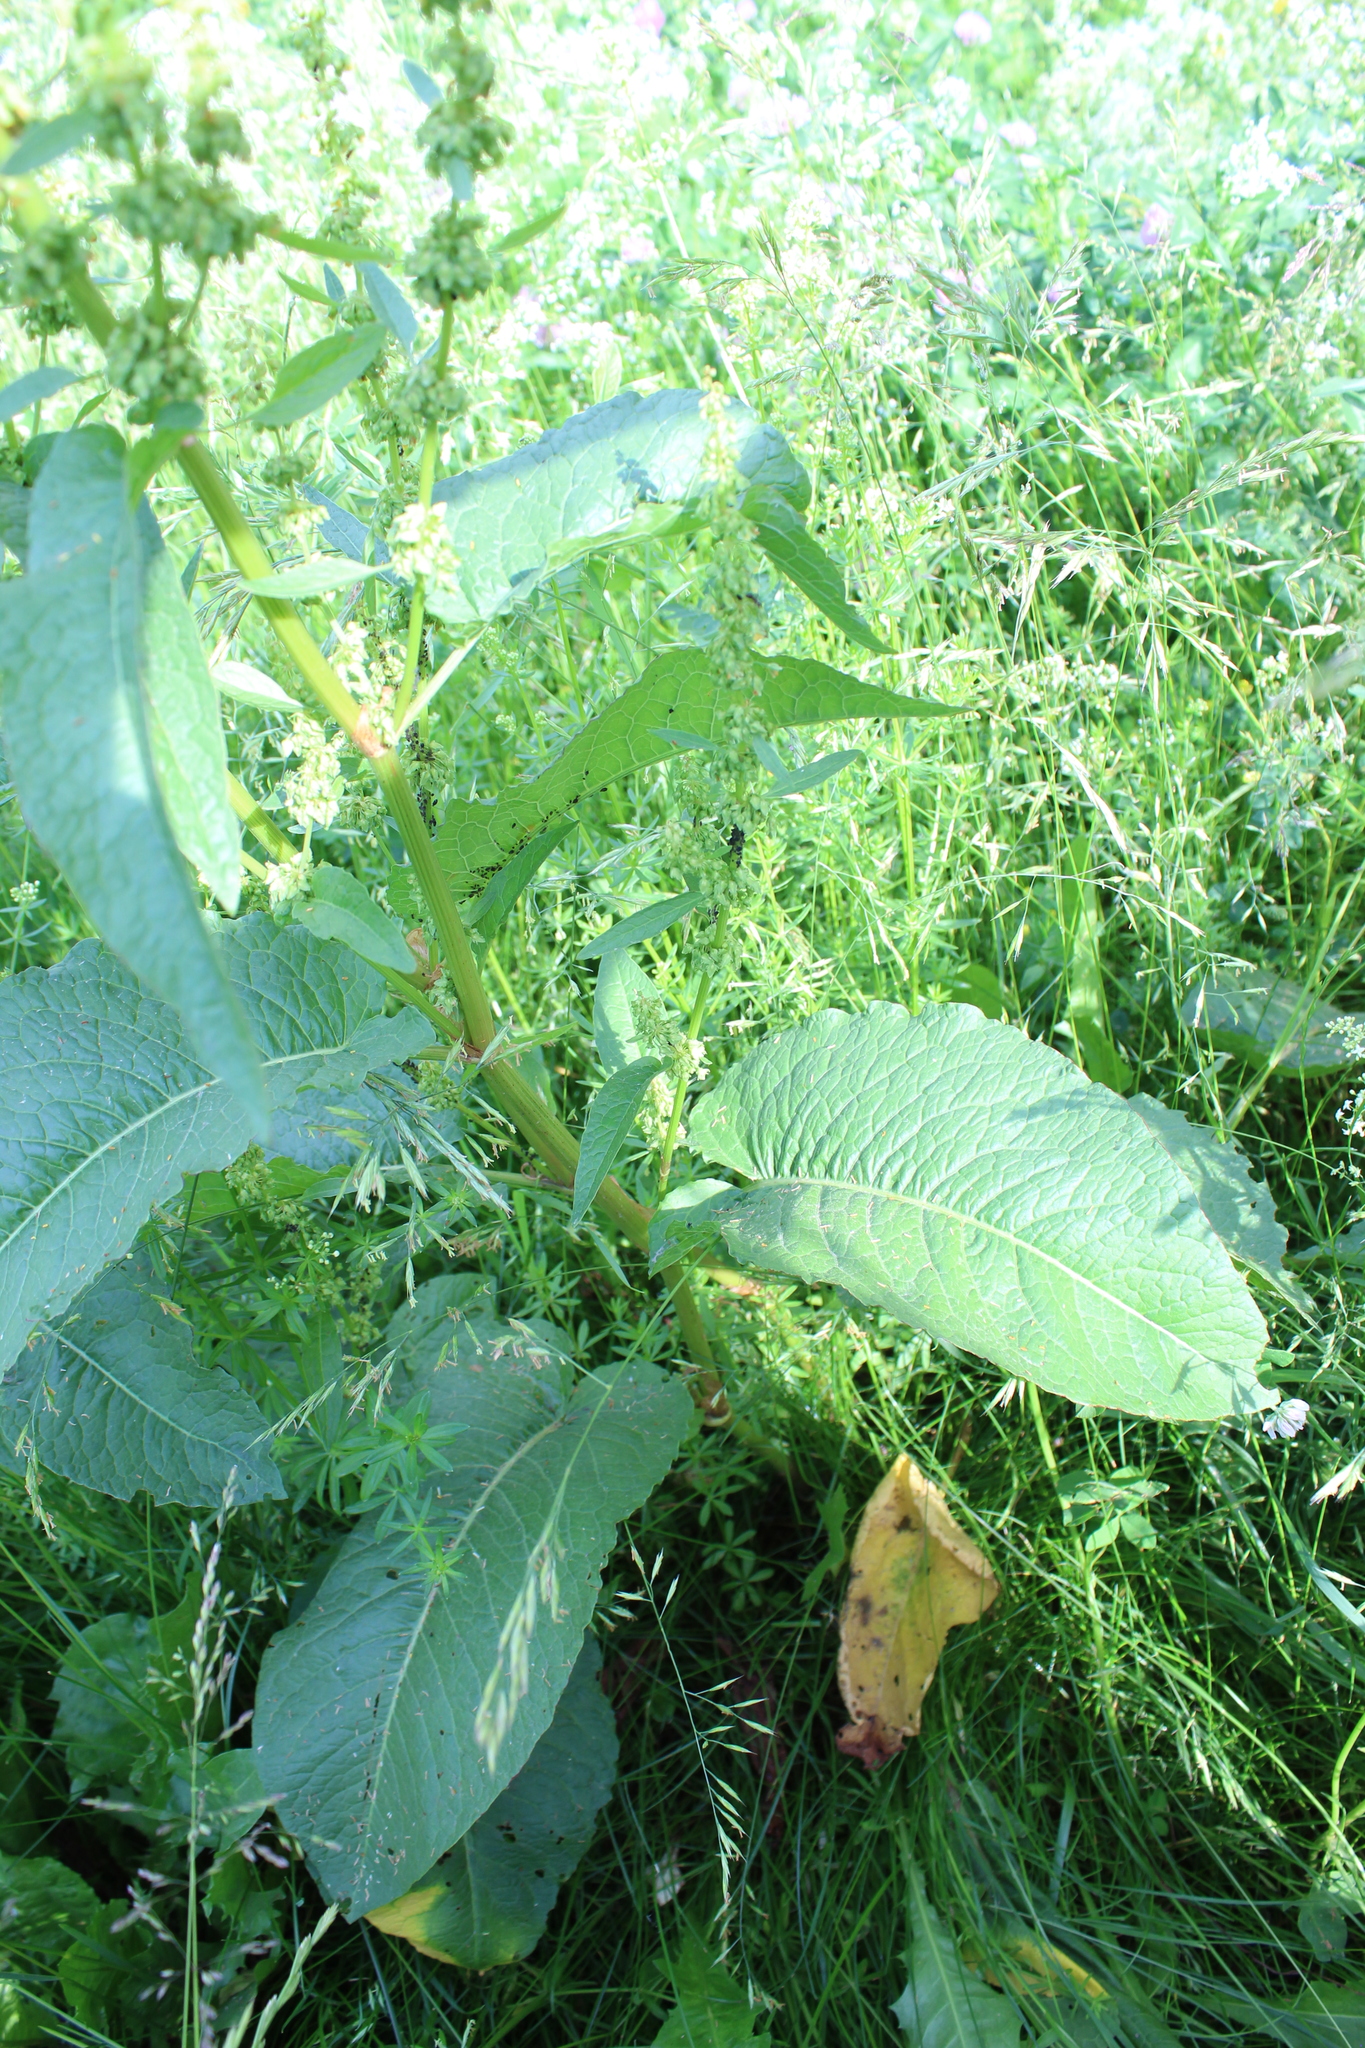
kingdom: Plantae
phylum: Tracheophyta
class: Magnoliopsida
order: Caryophyllales
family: Polygonaceae
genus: Rumex
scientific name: Rumex obtusifolius
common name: Bitter dock
